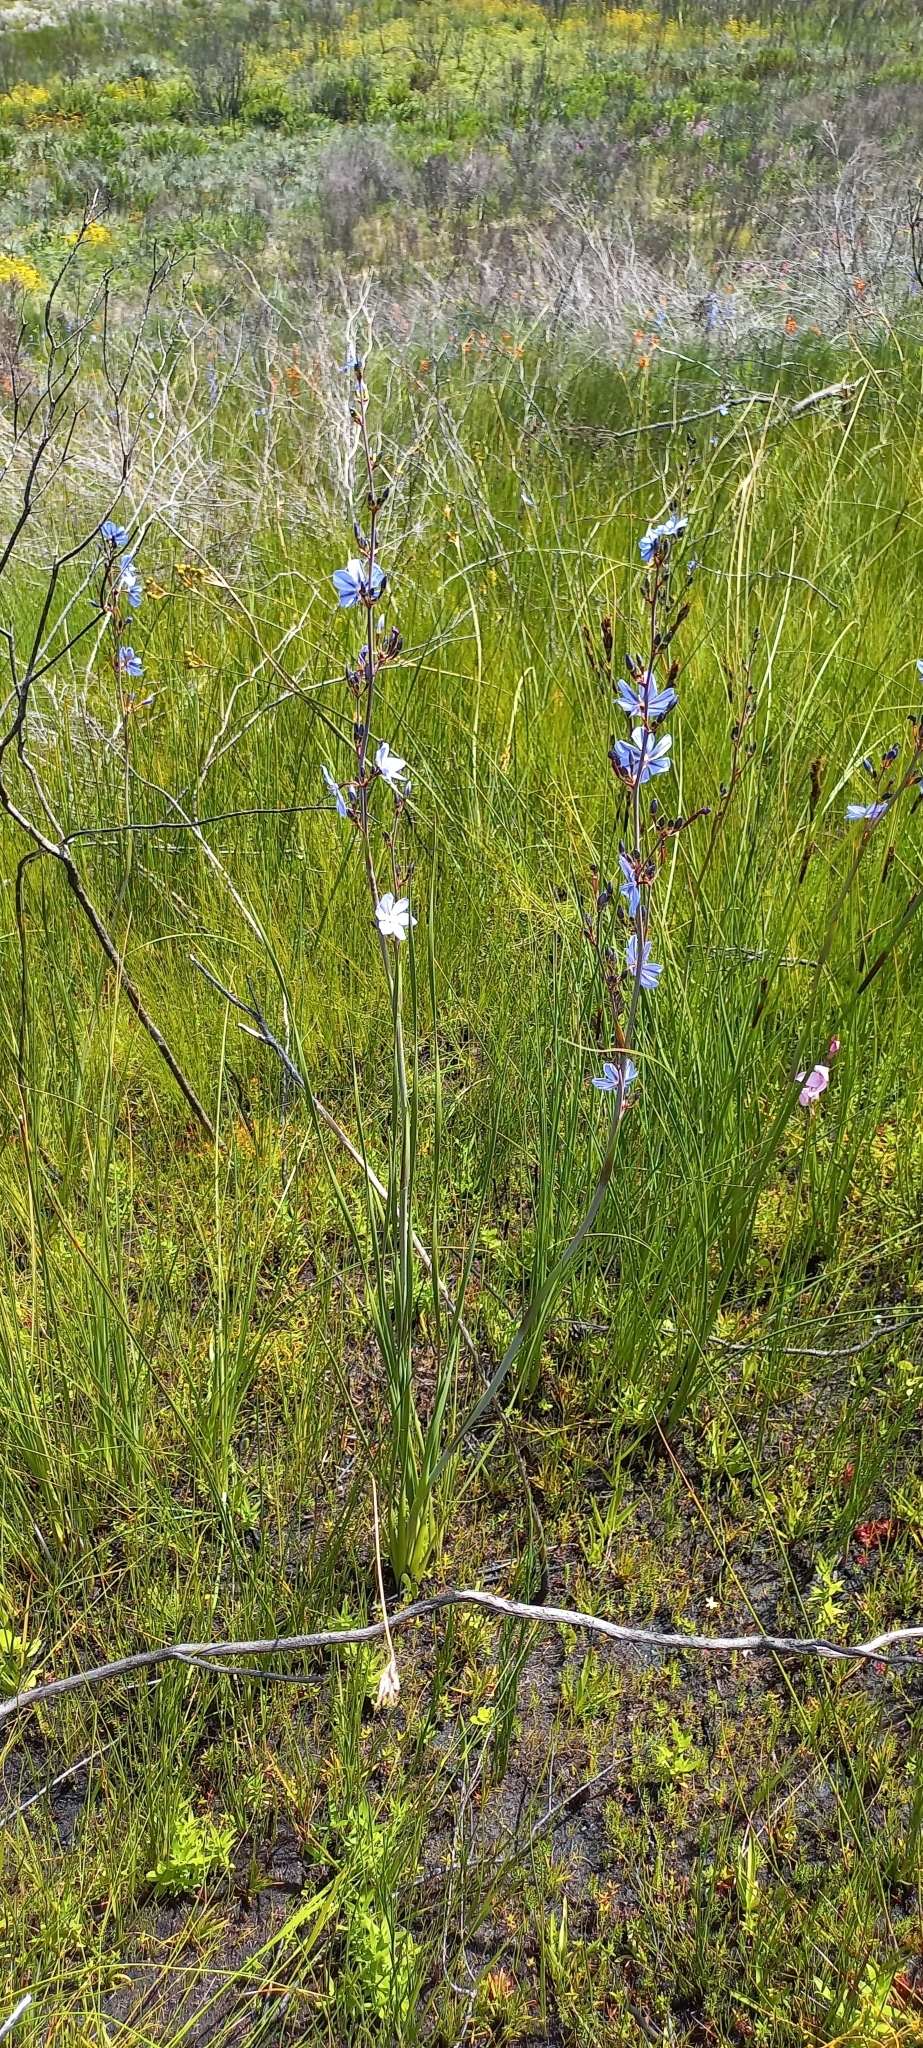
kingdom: Plantae
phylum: Tracheophyta
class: Liliopsida
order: Asparagales
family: Iridaceae
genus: Aristea
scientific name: Aristea bakeri
